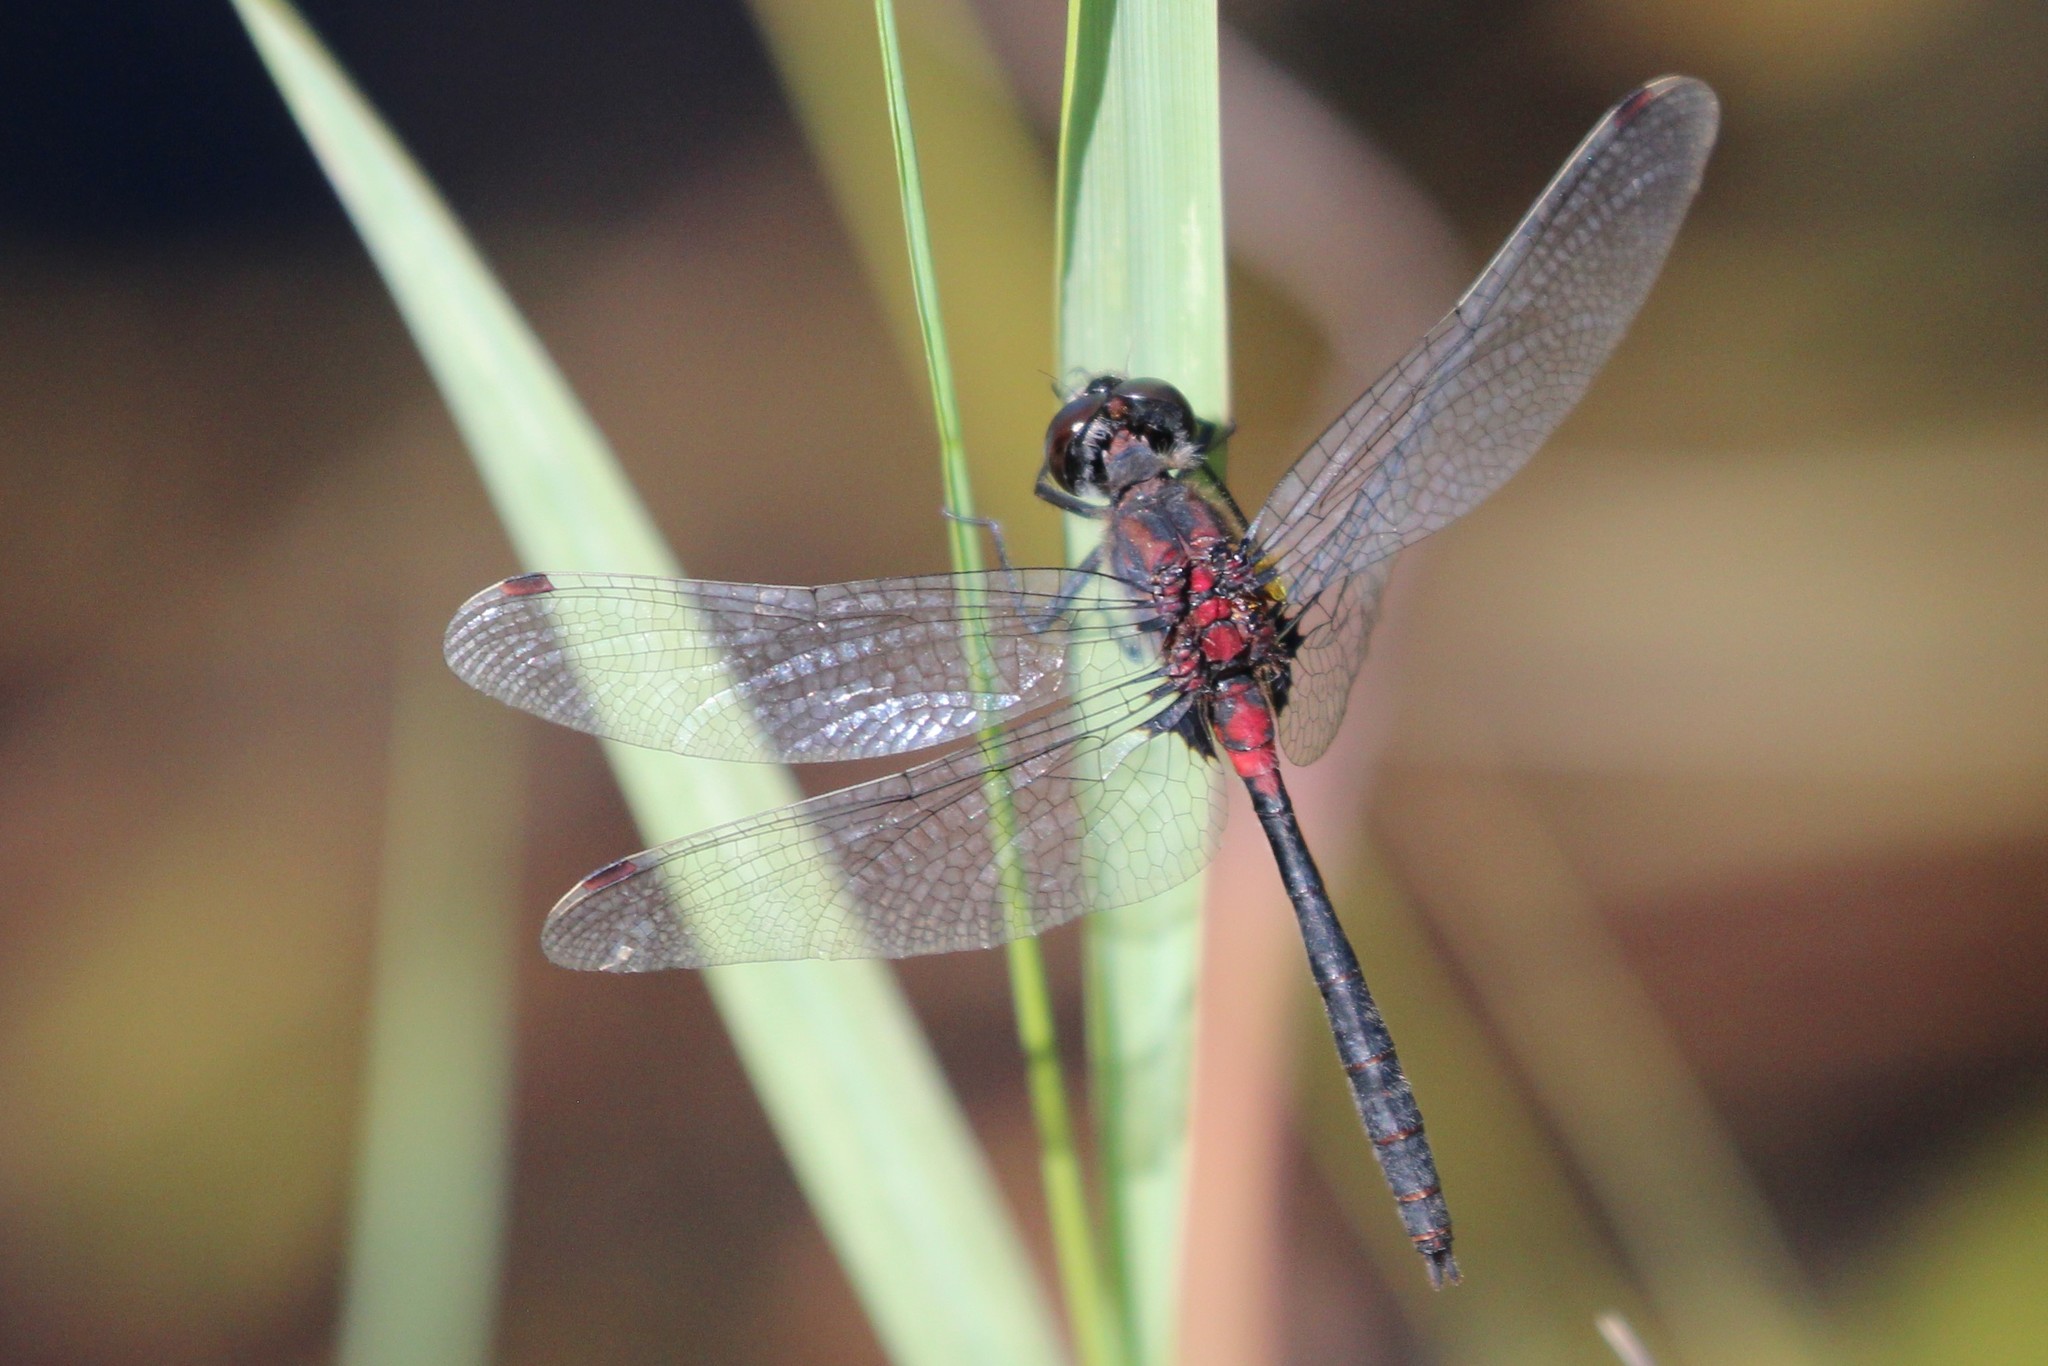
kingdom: Animalia
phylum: Arthropoda
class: Insecta
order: Odonata
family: Libellulidae
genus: Leucorrhinia
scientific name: Leucorrhinia glacialis
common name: Crimson-ringed whiteface
